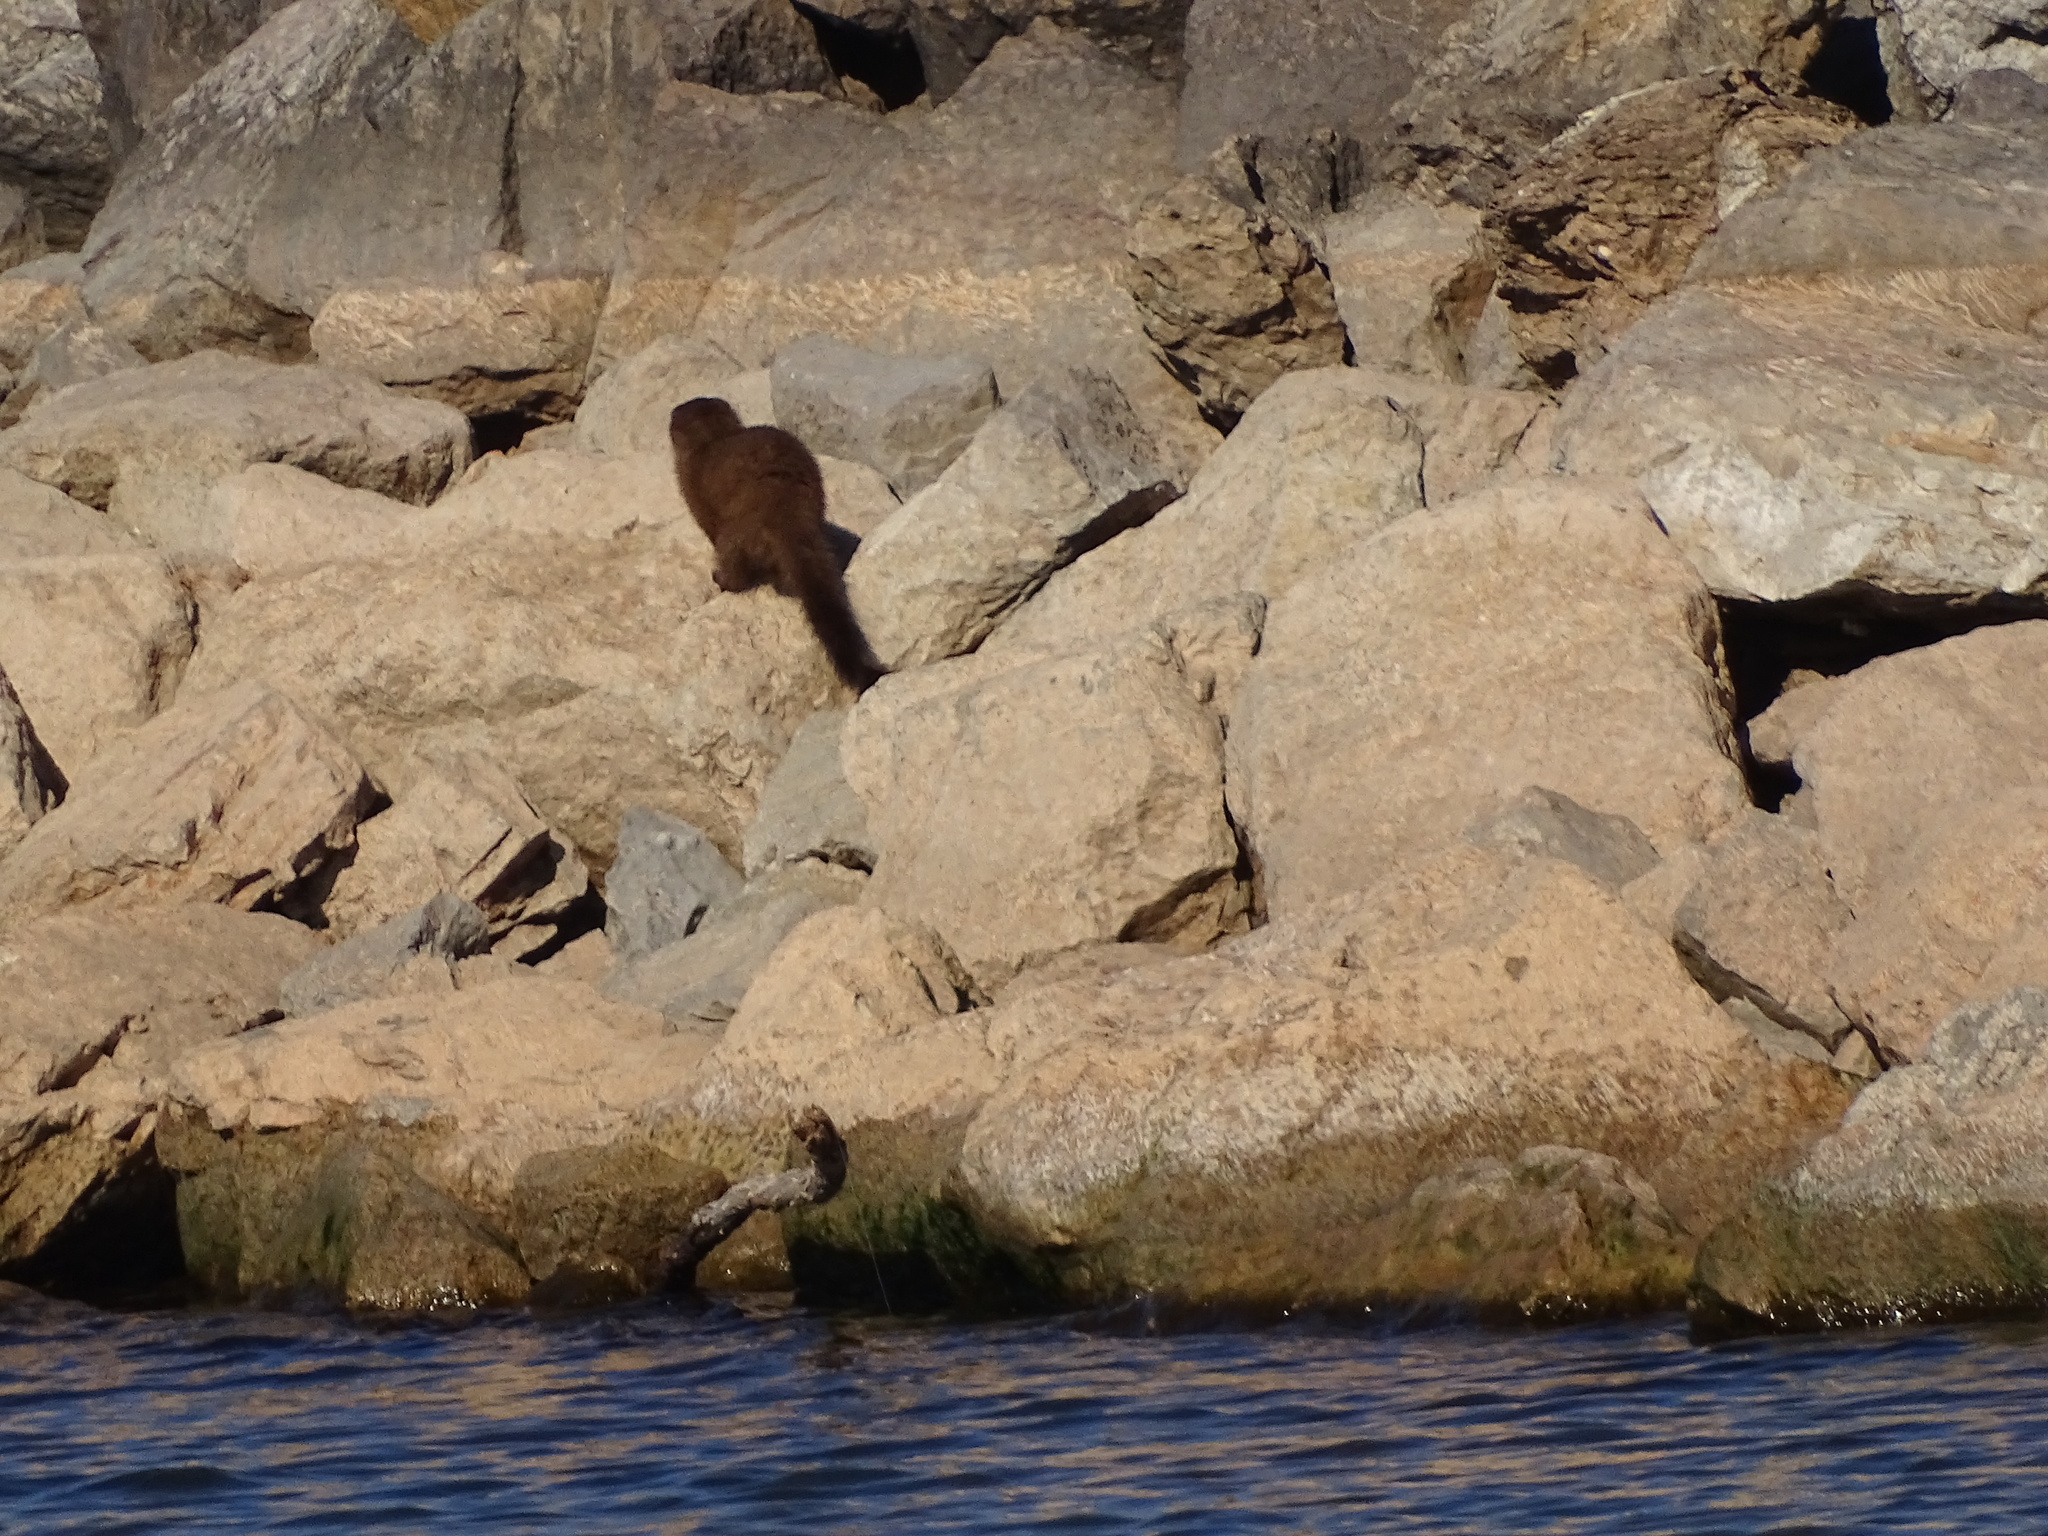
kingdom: Animalia
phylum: Chordata
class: Mammalia
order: Carnivora
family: Mustelidae
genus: Mustela
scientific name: Mustela
